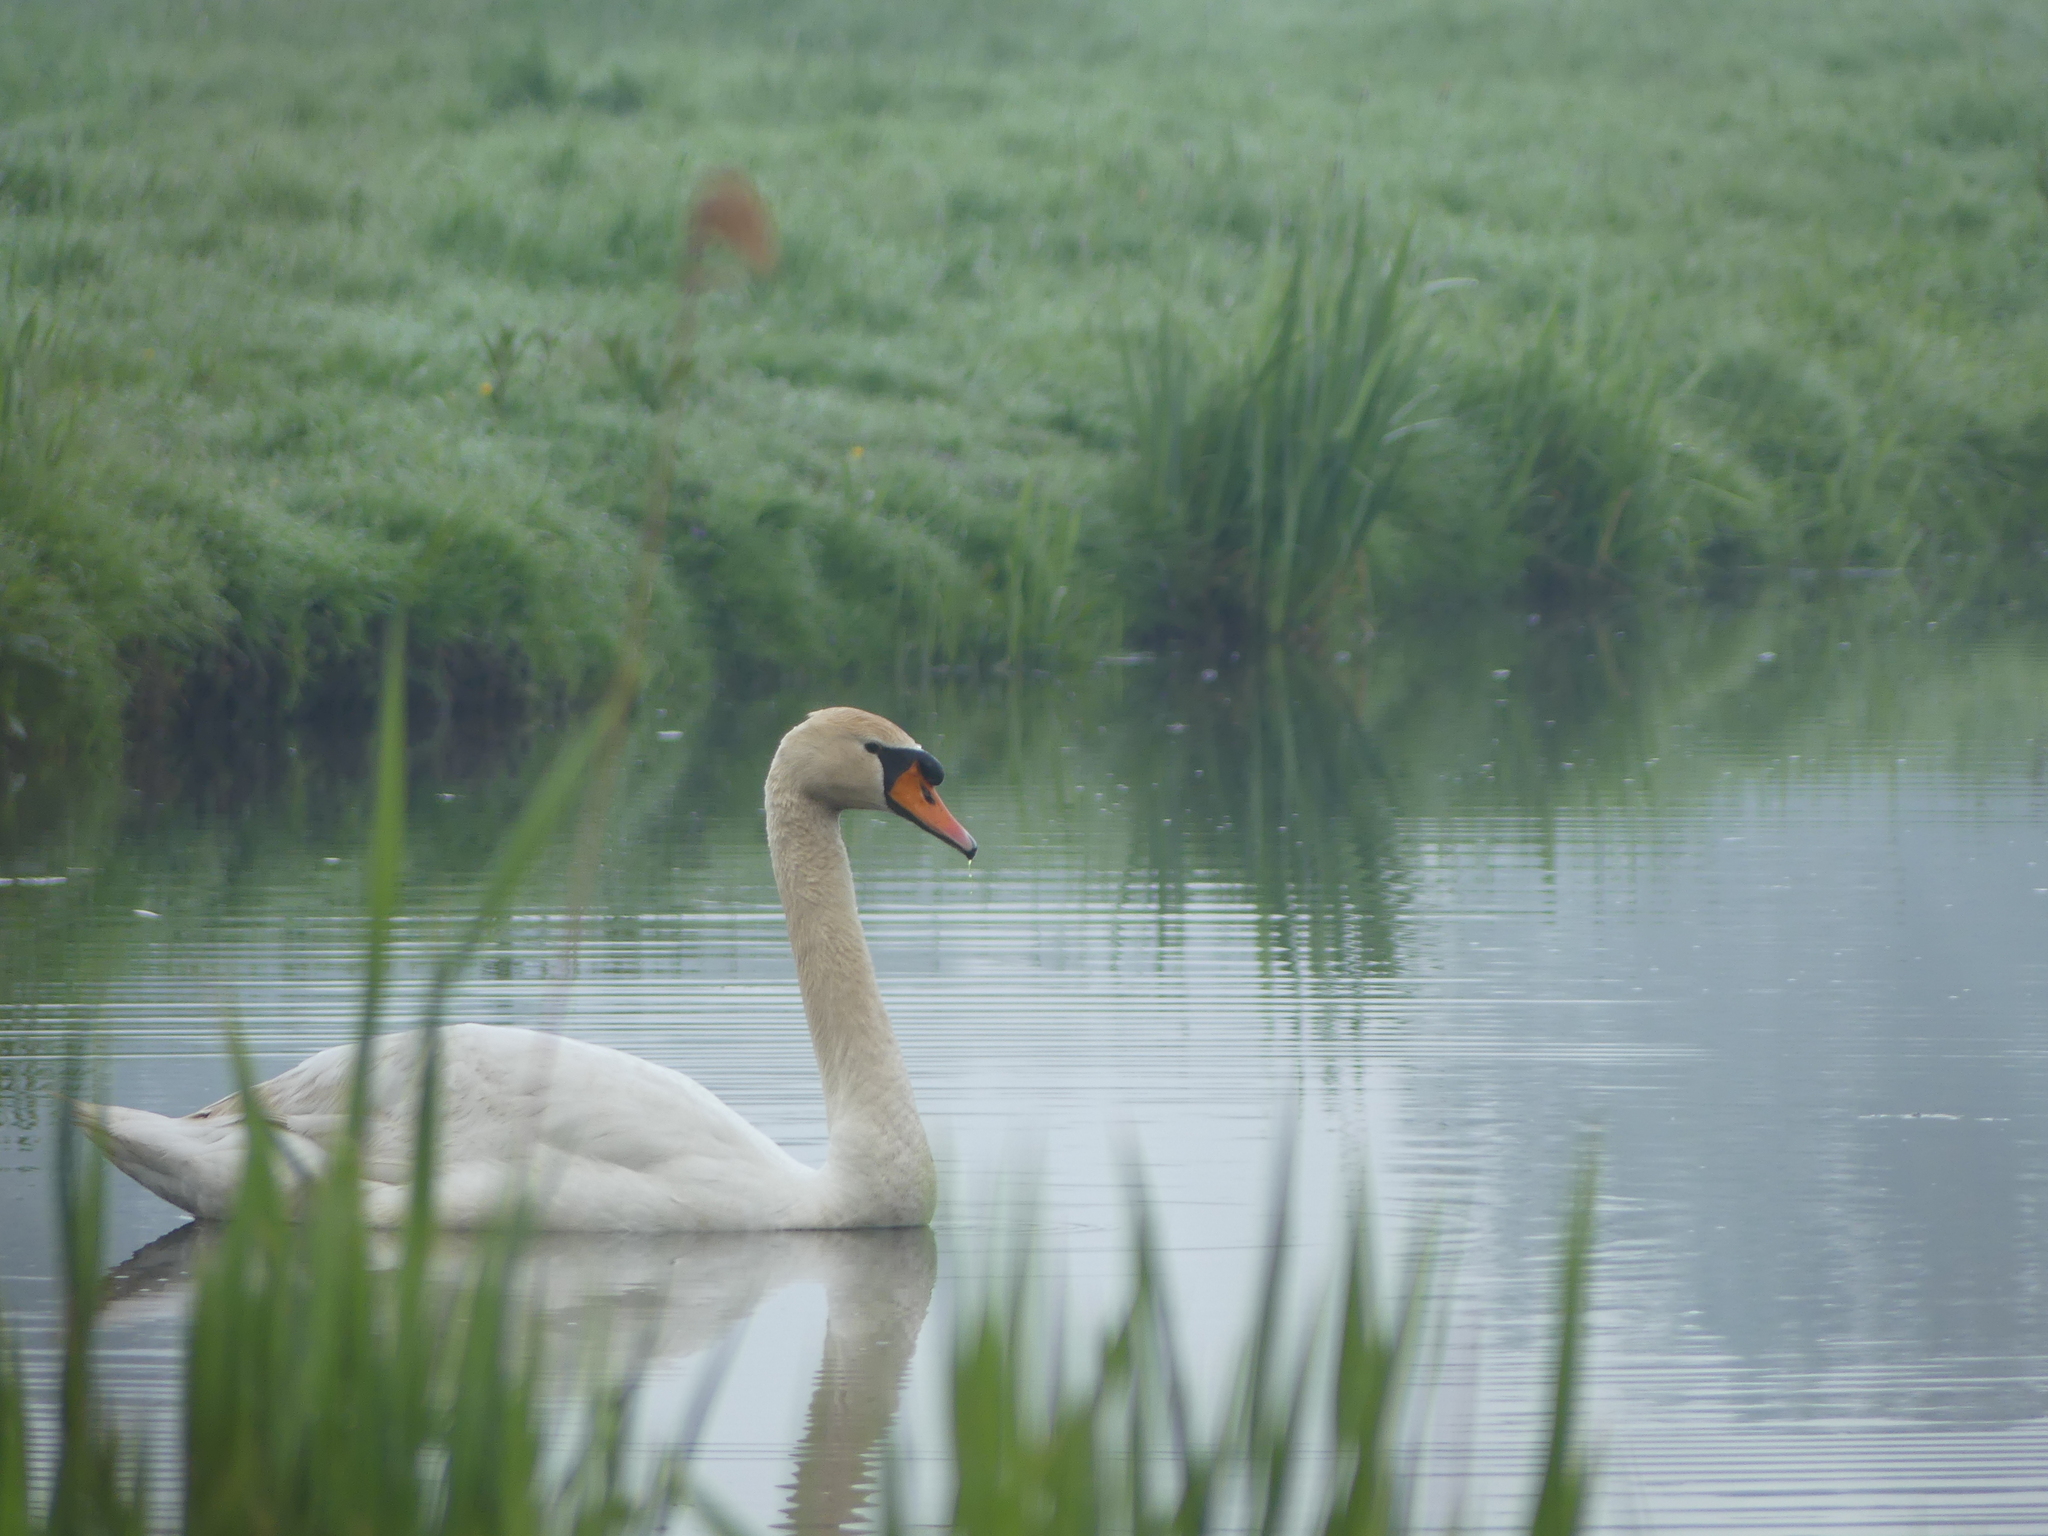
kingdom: Animalia
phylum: Chordata
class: Aves
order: Anseriformes
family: Anatidae
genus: Cygnus
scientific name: Cygnus olor
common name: Mute swan
